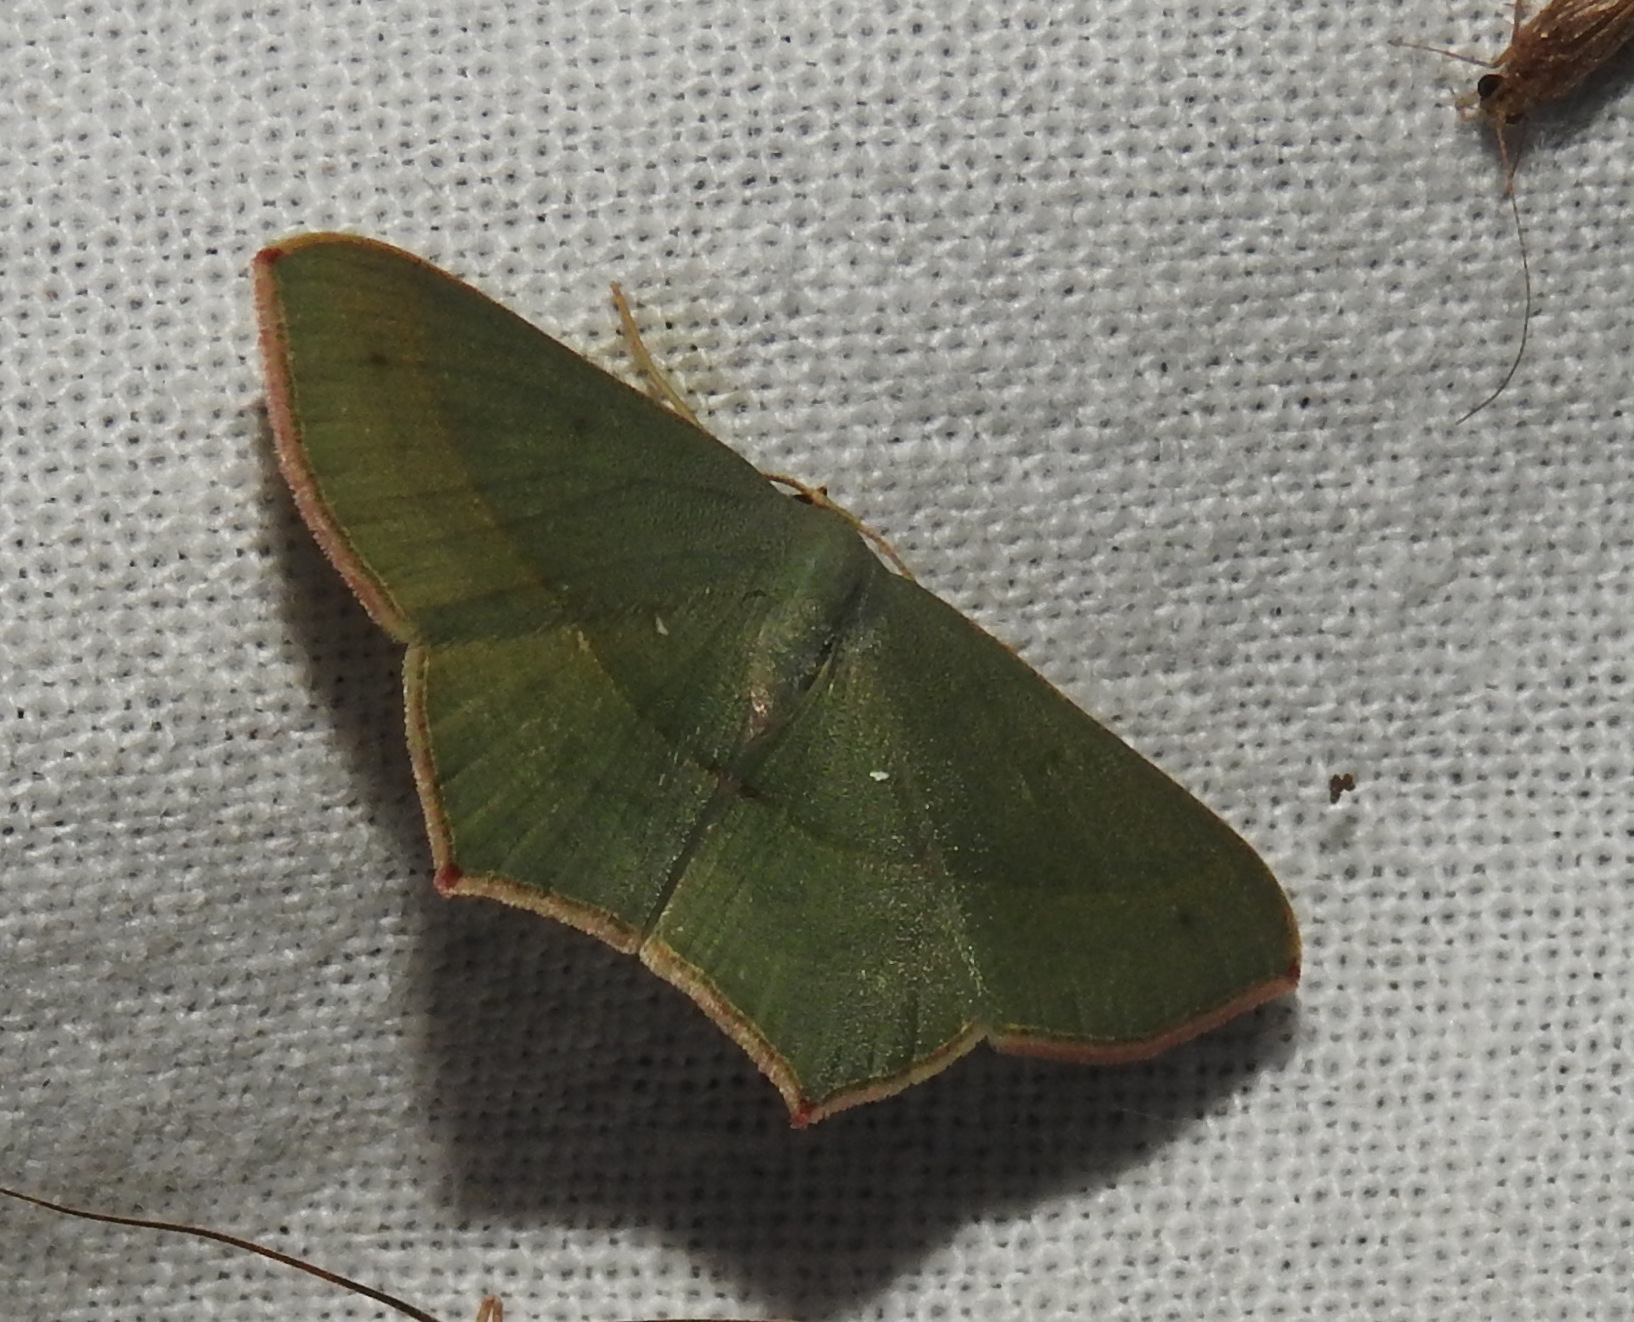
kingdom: Animalia
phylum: Arthropoda
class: Insecta
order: Lepidoptera
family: Geometridae
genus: Traminda
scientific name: Traminda mundissima
